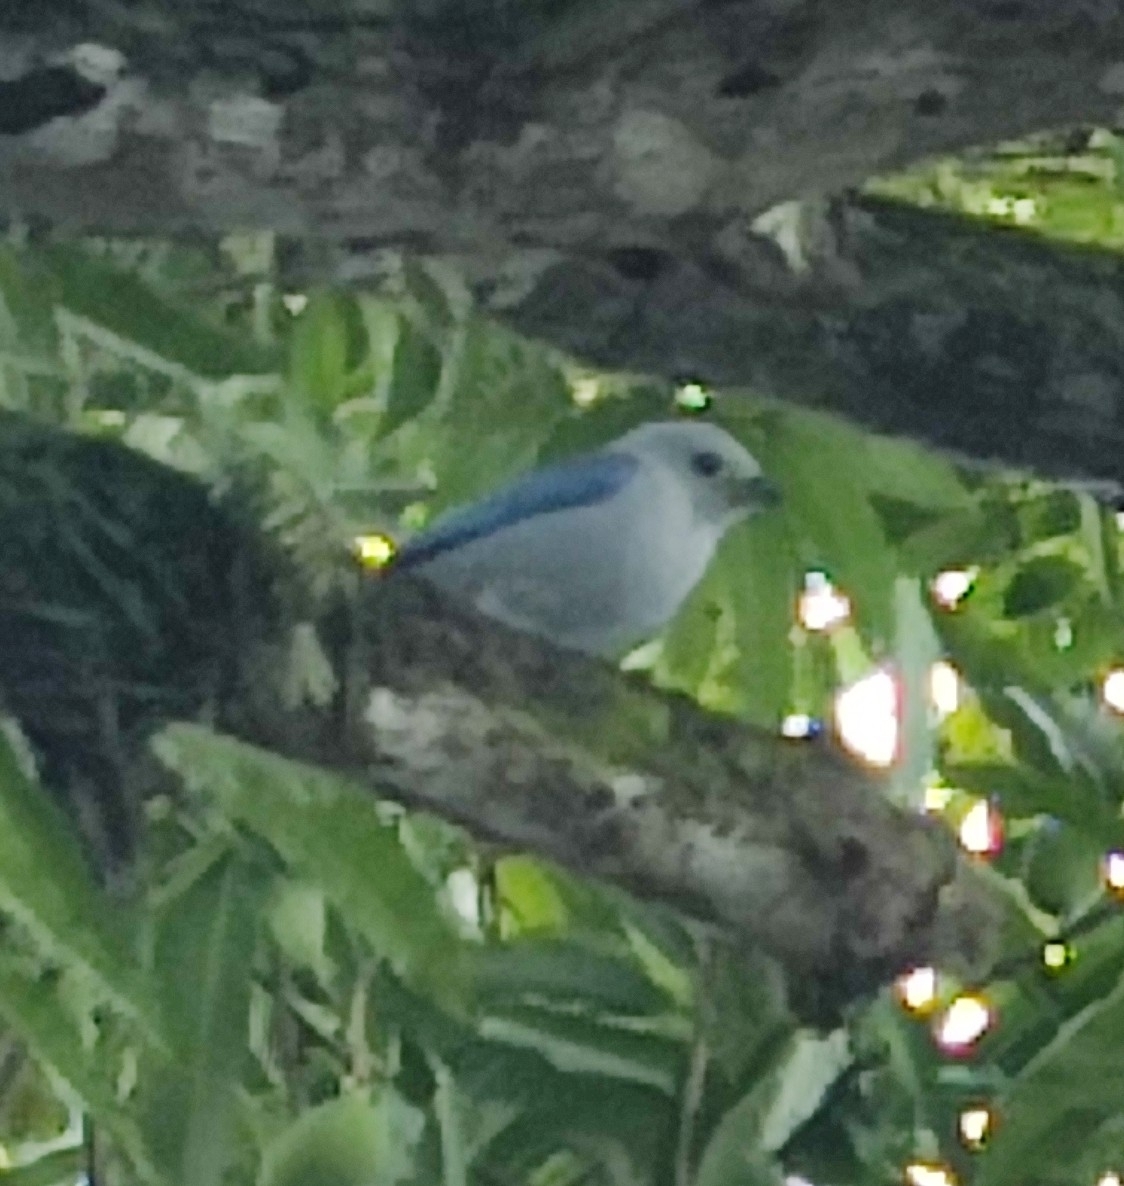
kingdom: Animalia
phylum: Chordata
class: Aves
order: Passeriformes
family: Thraupidae
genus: Thraupis
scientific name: Thraupis episcopus
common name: Blue-grey tanager
